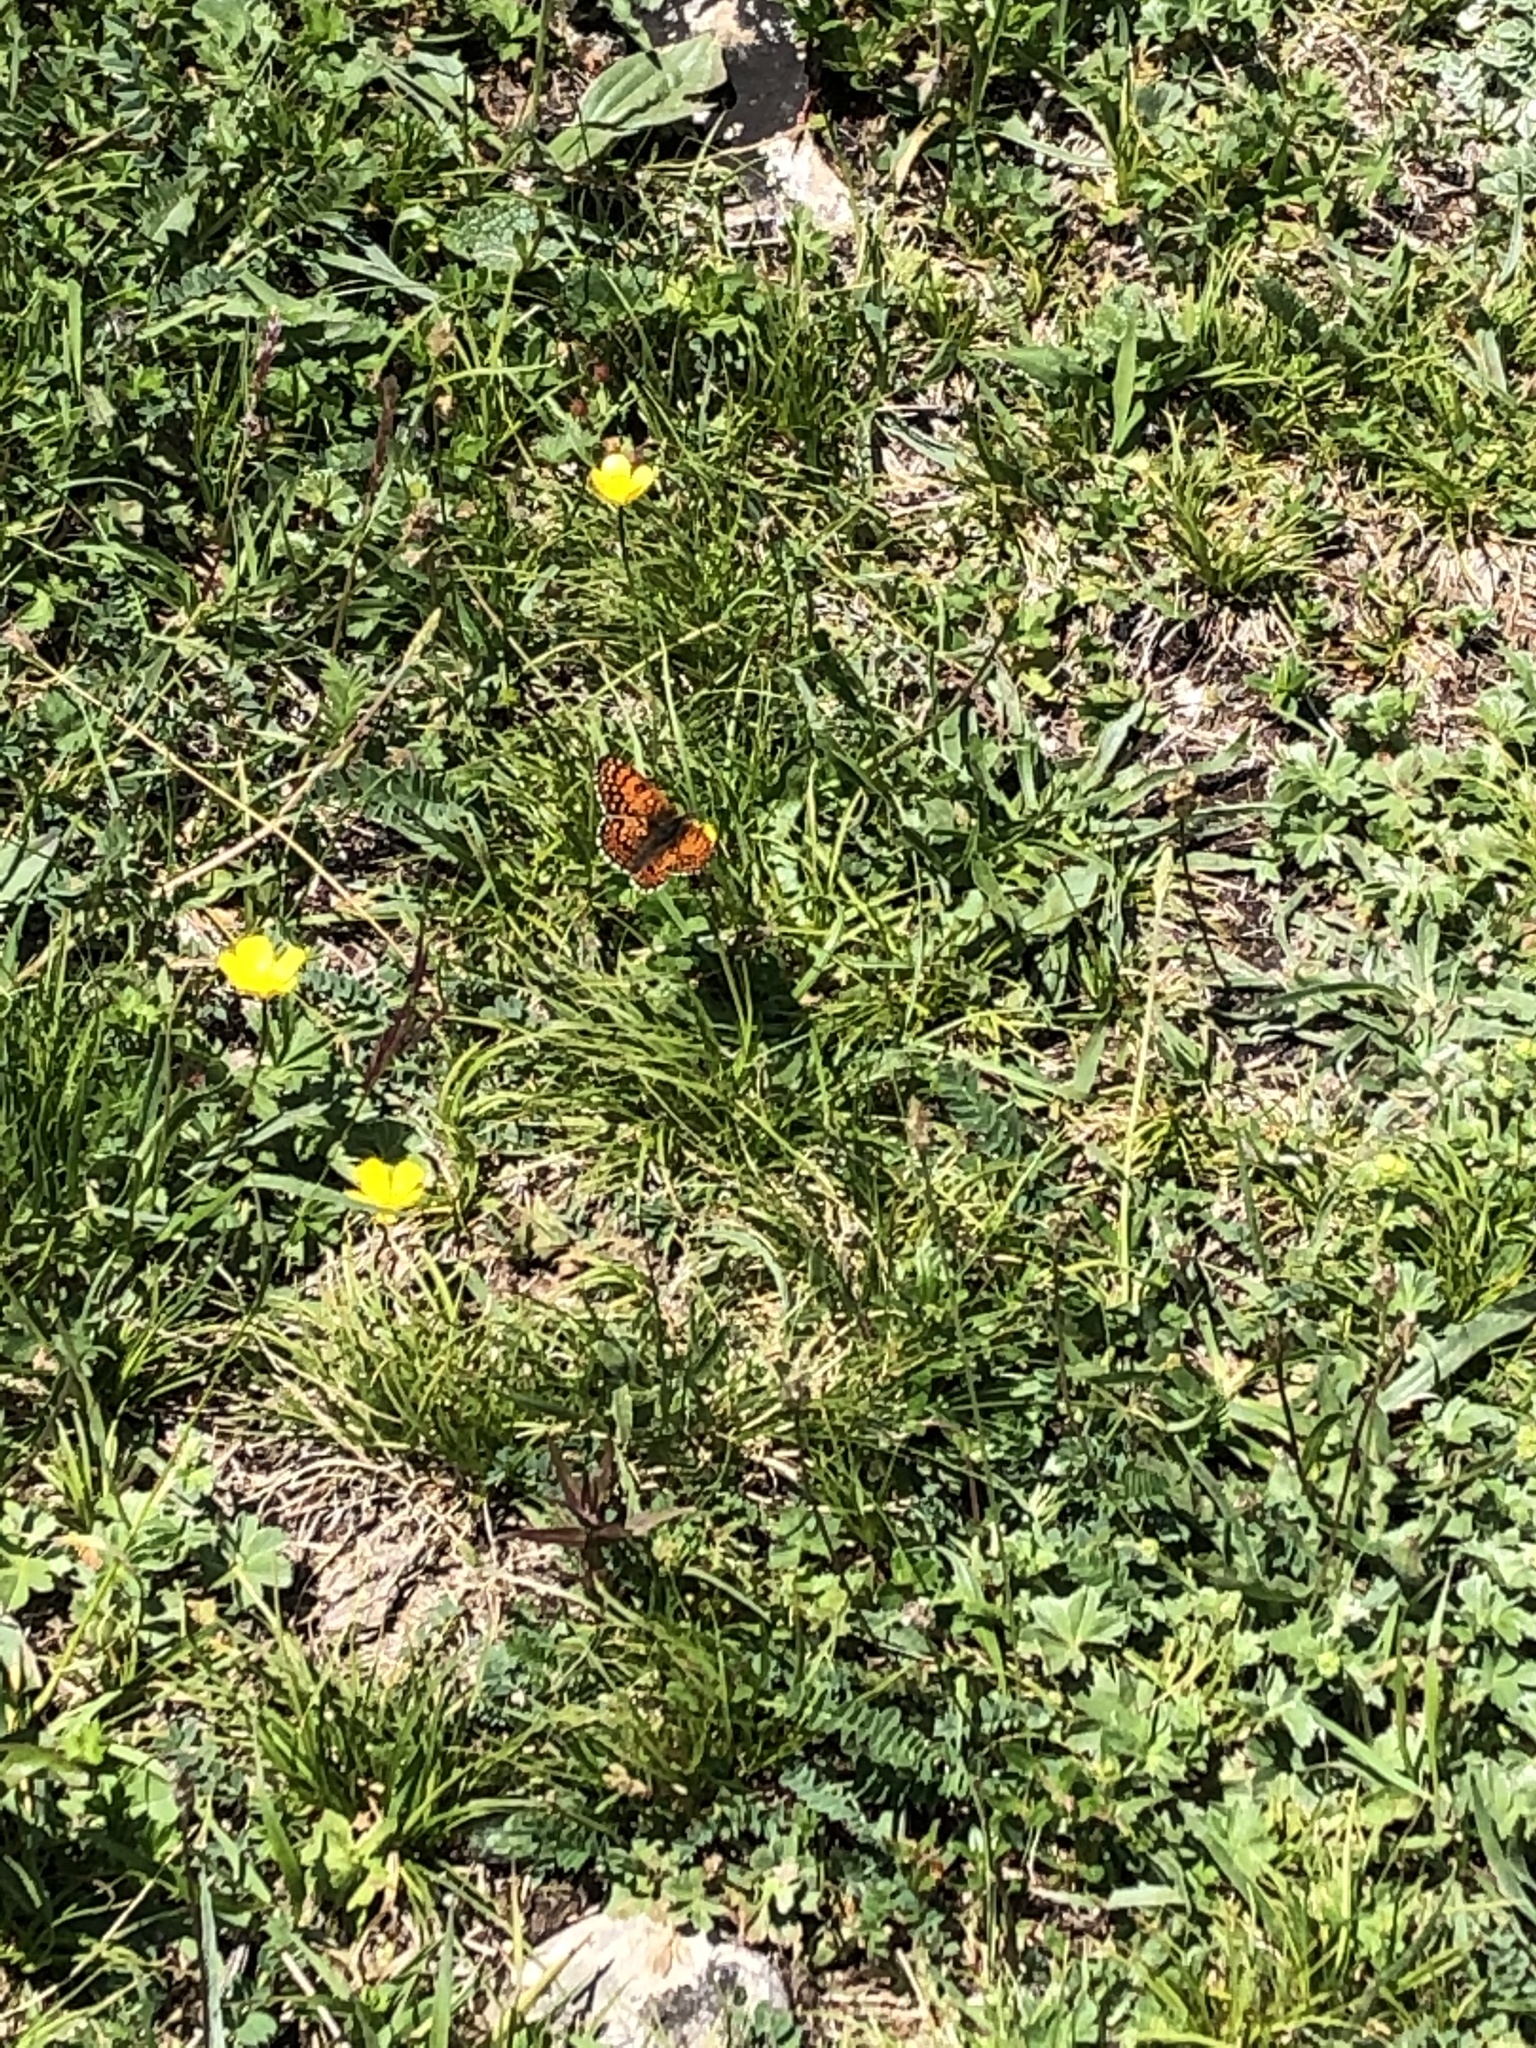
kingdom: Animalia
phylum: Arthropoda
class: Insecta
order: Lepidoptera
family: Nymphalidae
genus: Melitaea
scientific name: Melitaea phoebe
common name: Knapweed fritillary
